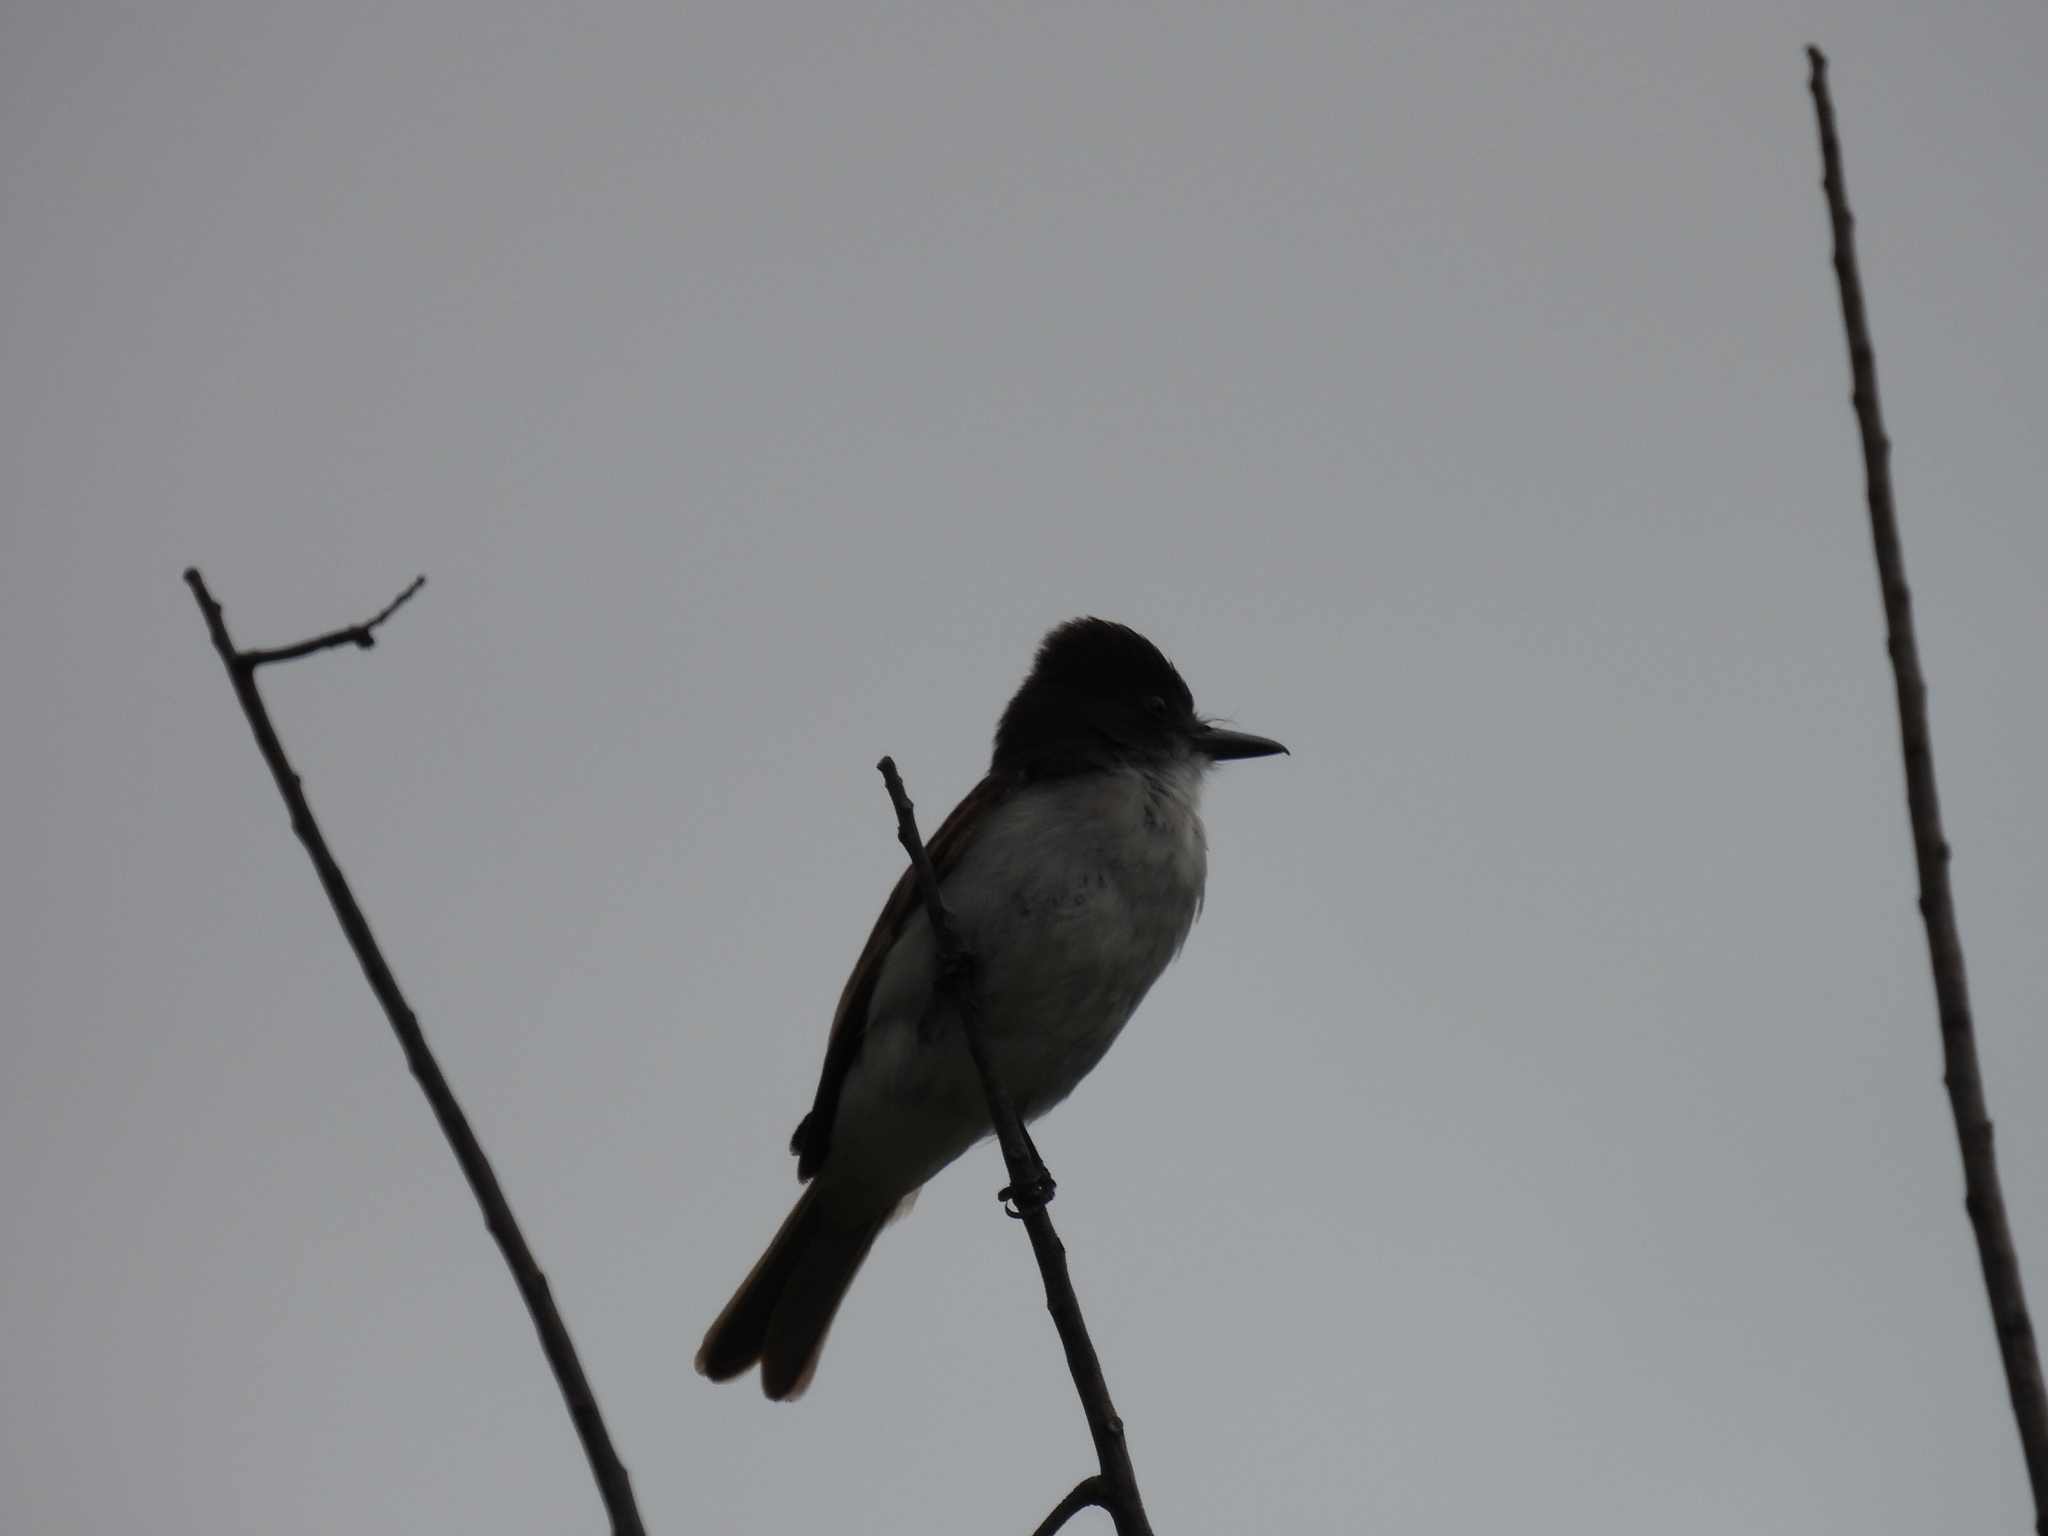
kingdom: Animalia
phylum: Chordata
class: Aves
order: Passeriformes
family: Tyrannidae
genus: Tyrannus
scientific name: Tyrannus caudifasciatus
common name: Loggerhead kingbird
